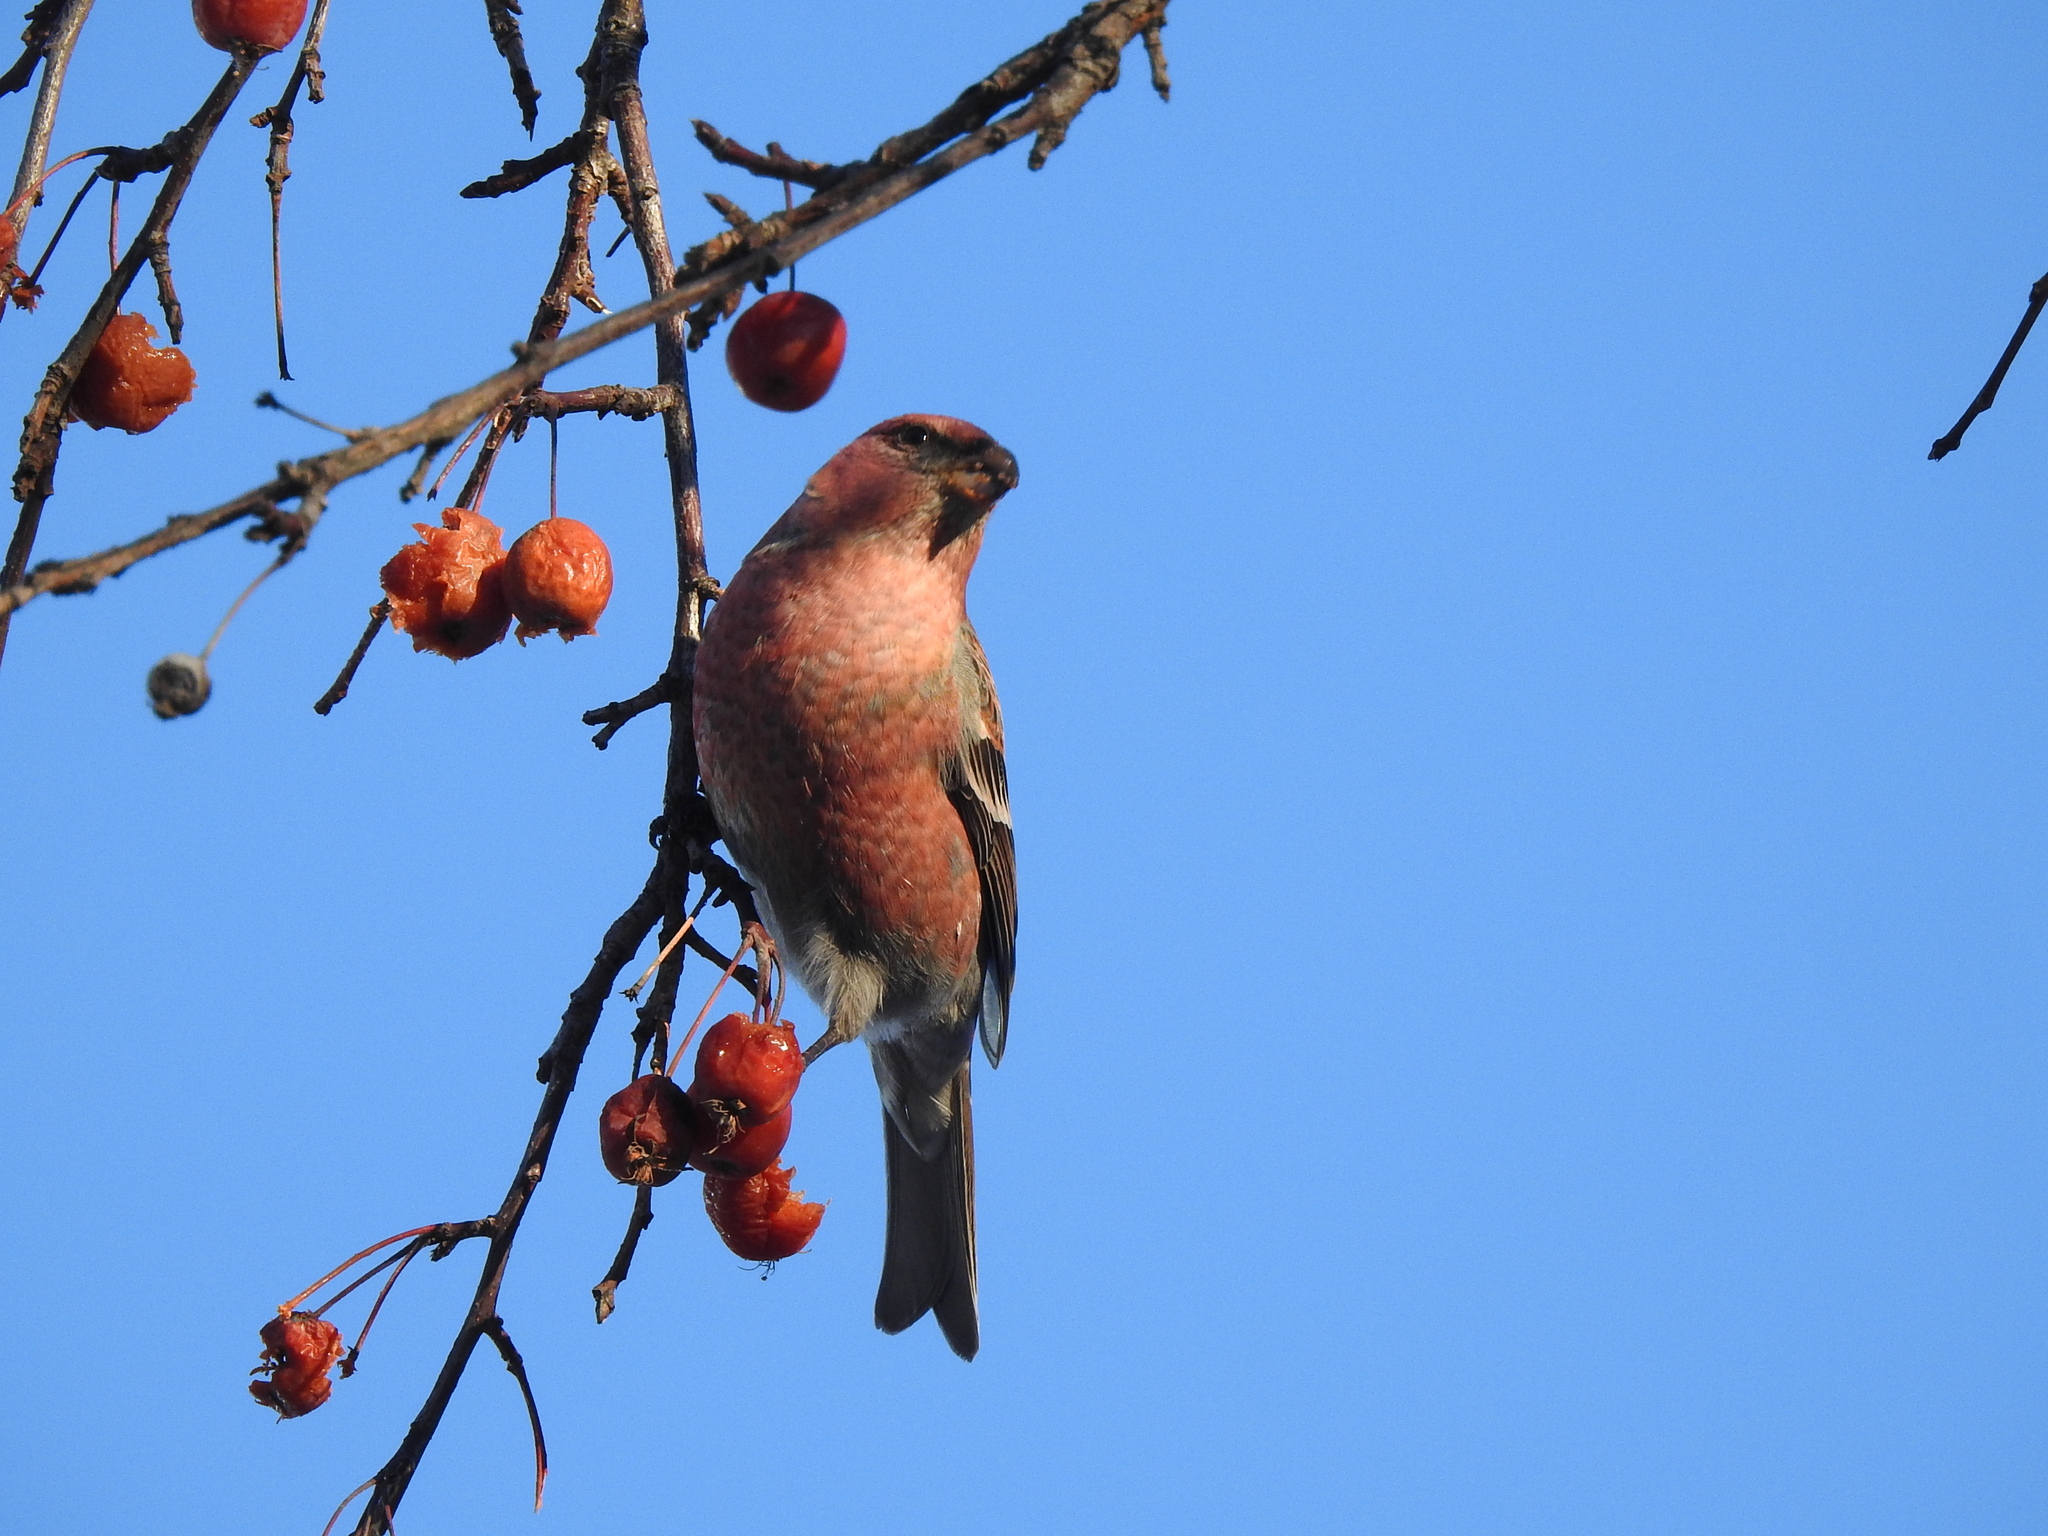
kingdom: Animalia
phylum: Chordata
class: Aves
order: Passeriformes
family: Fringillidae
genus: Pinicola
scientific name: Pinicola enucleator
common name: Pine grosbeak
